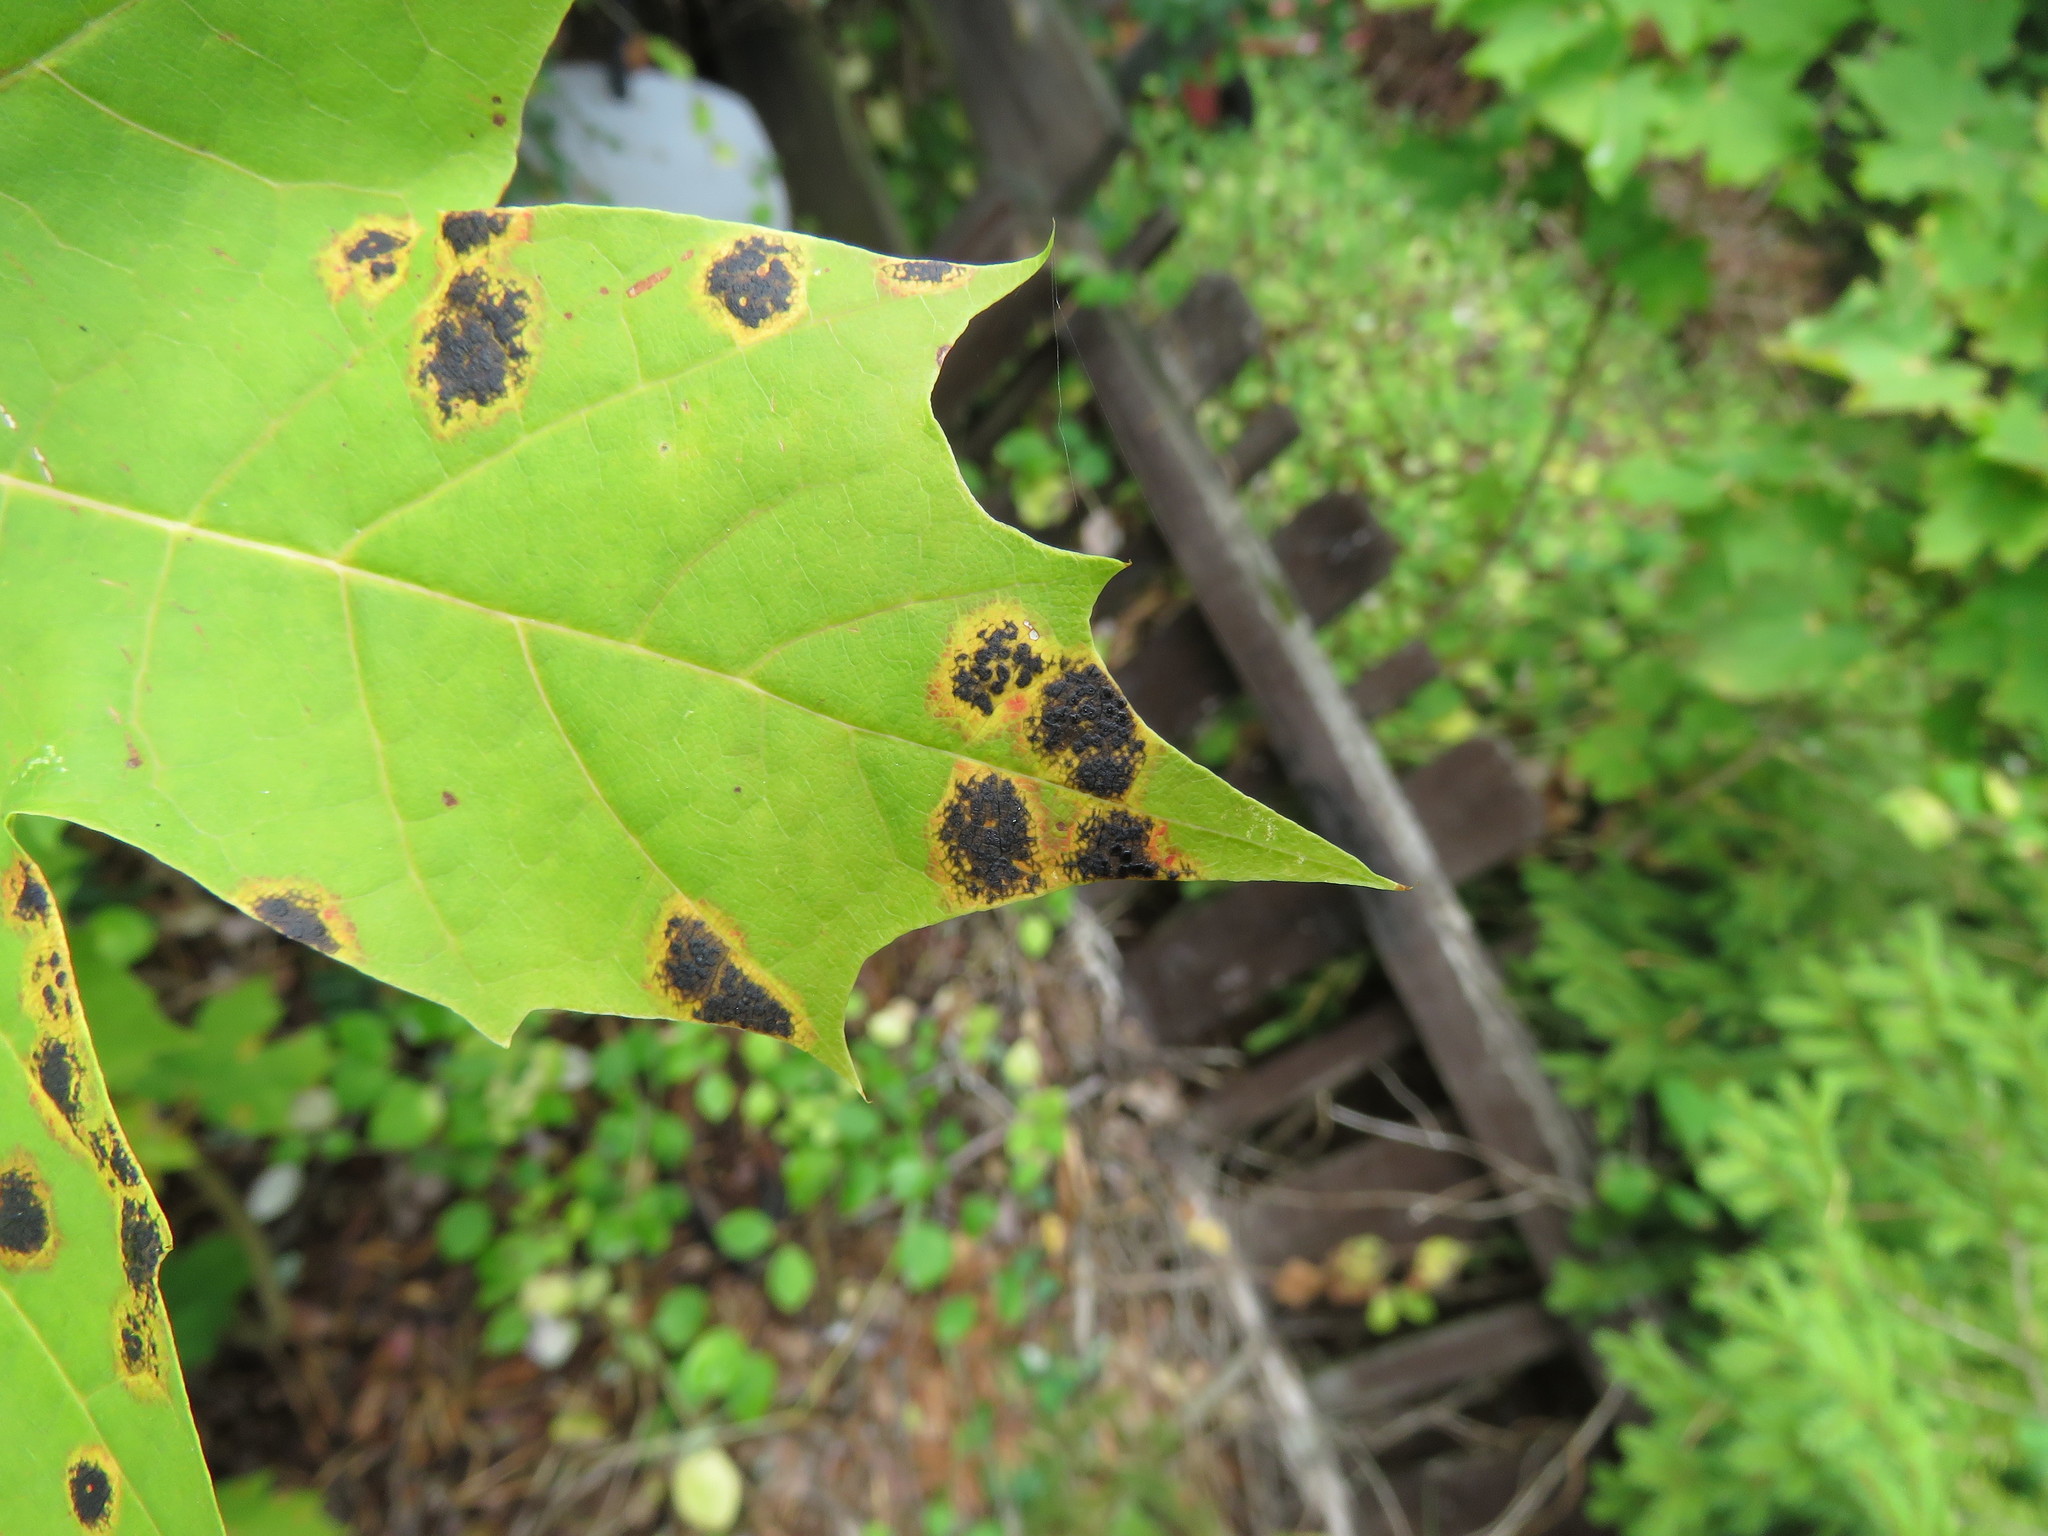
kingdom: Fungi
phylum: Ascomycota
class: Leotiomycetes
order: Rhytismatales
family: Rhytismataceae
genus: Rhytisma
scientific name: Rhytisma acerinum
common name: European tar spot
